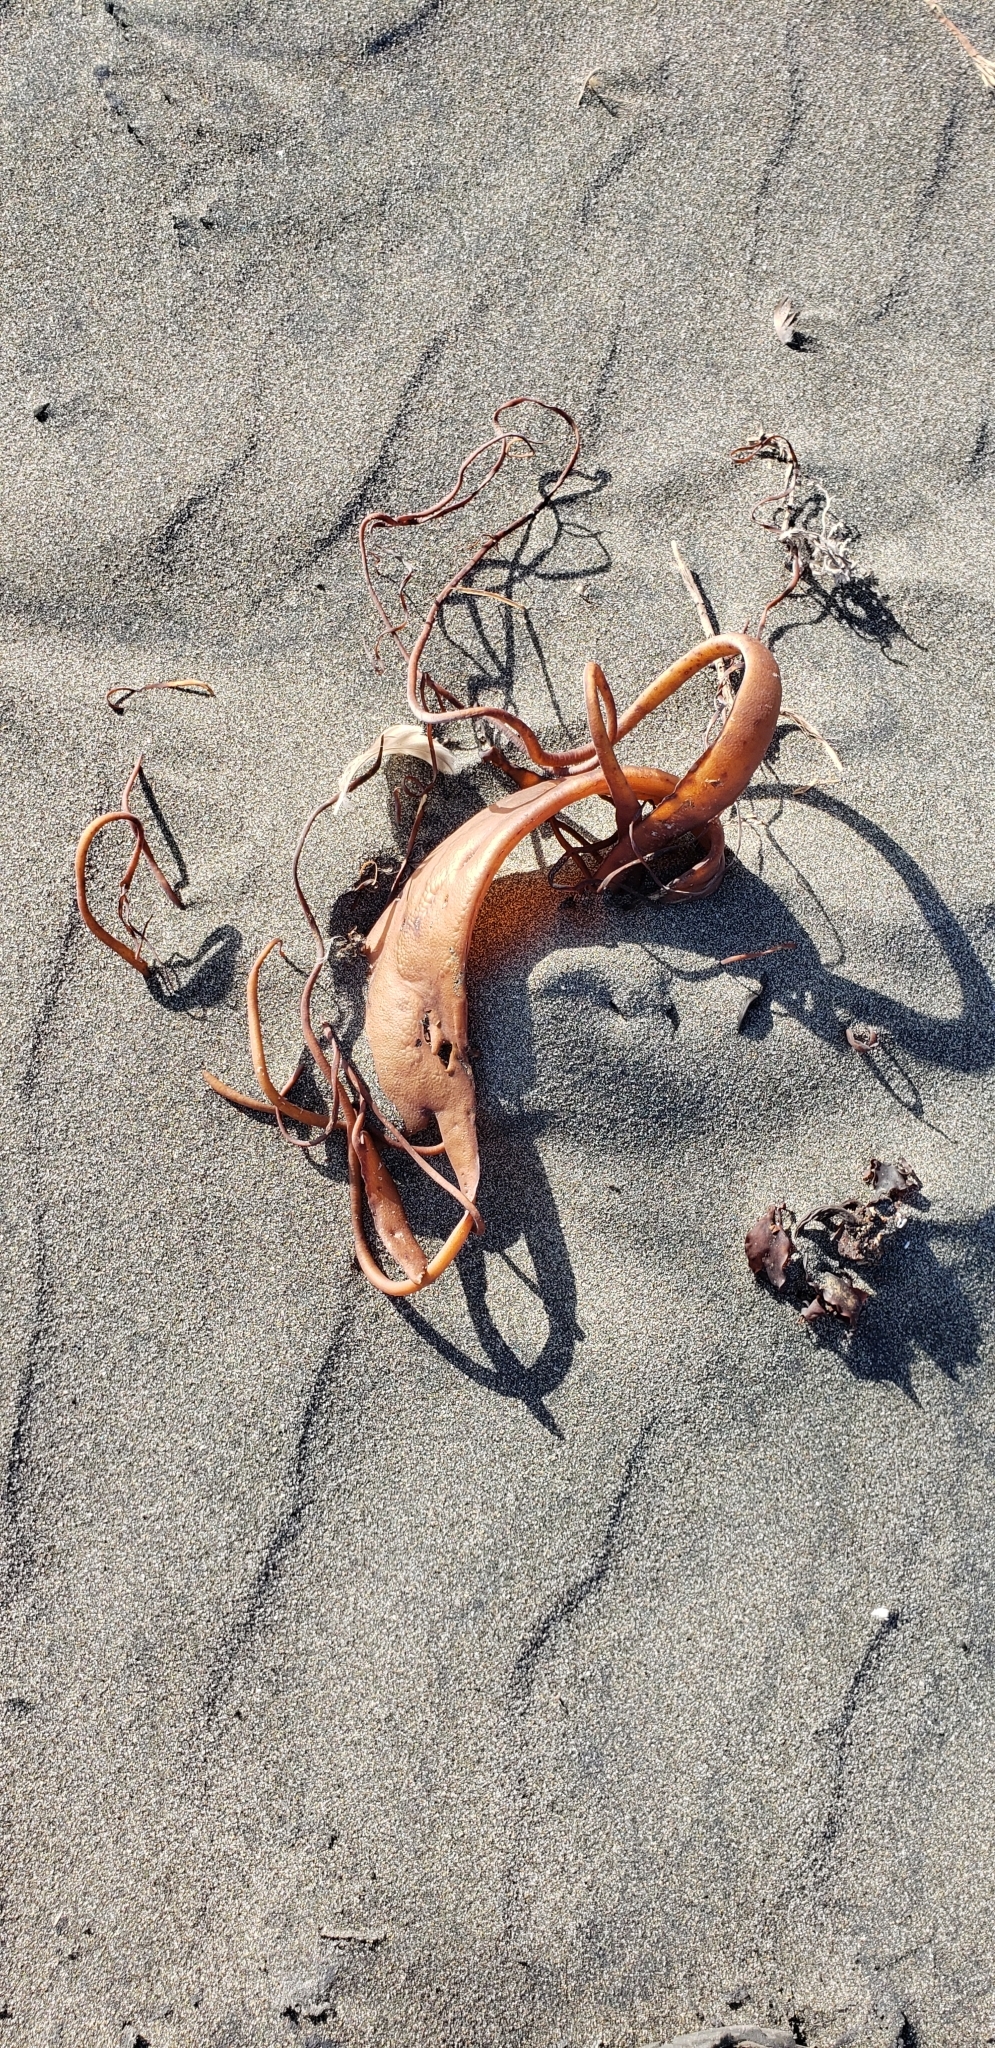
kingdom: Chromista
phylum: Ochrophyta
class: Phaeophyceae
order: Fucales
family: Durvillaeaceae
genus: Durvillaea
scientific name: Durvillaea
